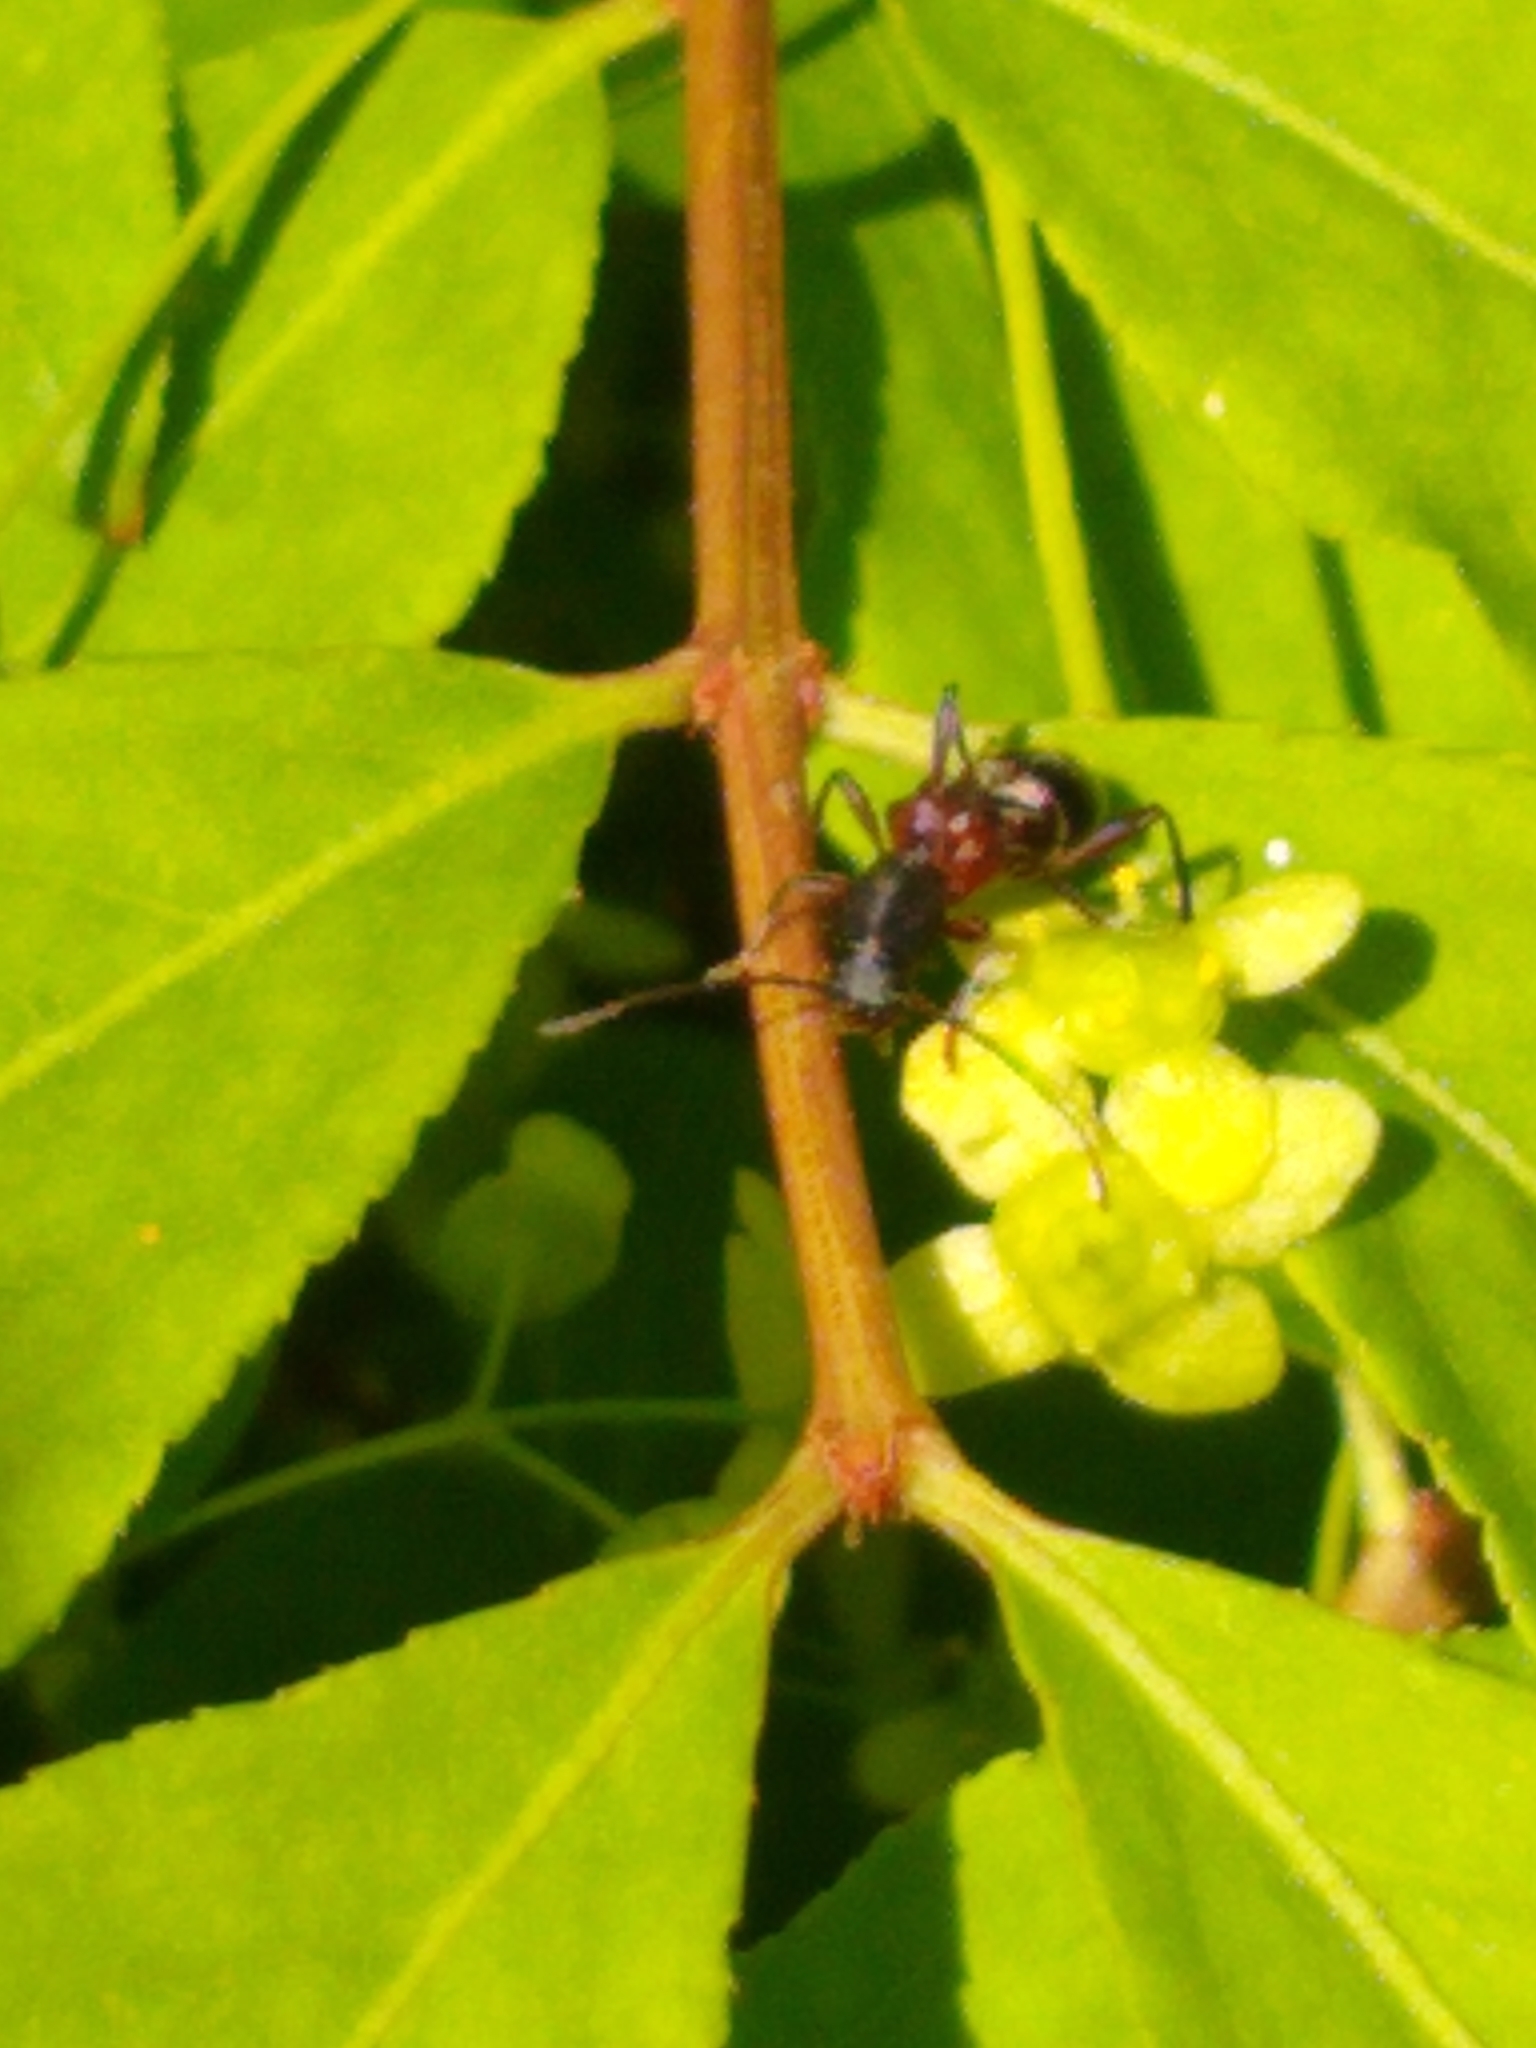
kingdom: Animalia
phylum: Arthropoda
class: Insecta
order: Coleoptera
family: Cerambycidae
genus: Cyrtophorus
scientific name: Cyrtophorus verrucosus
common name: Ant-like longhorn beetle
